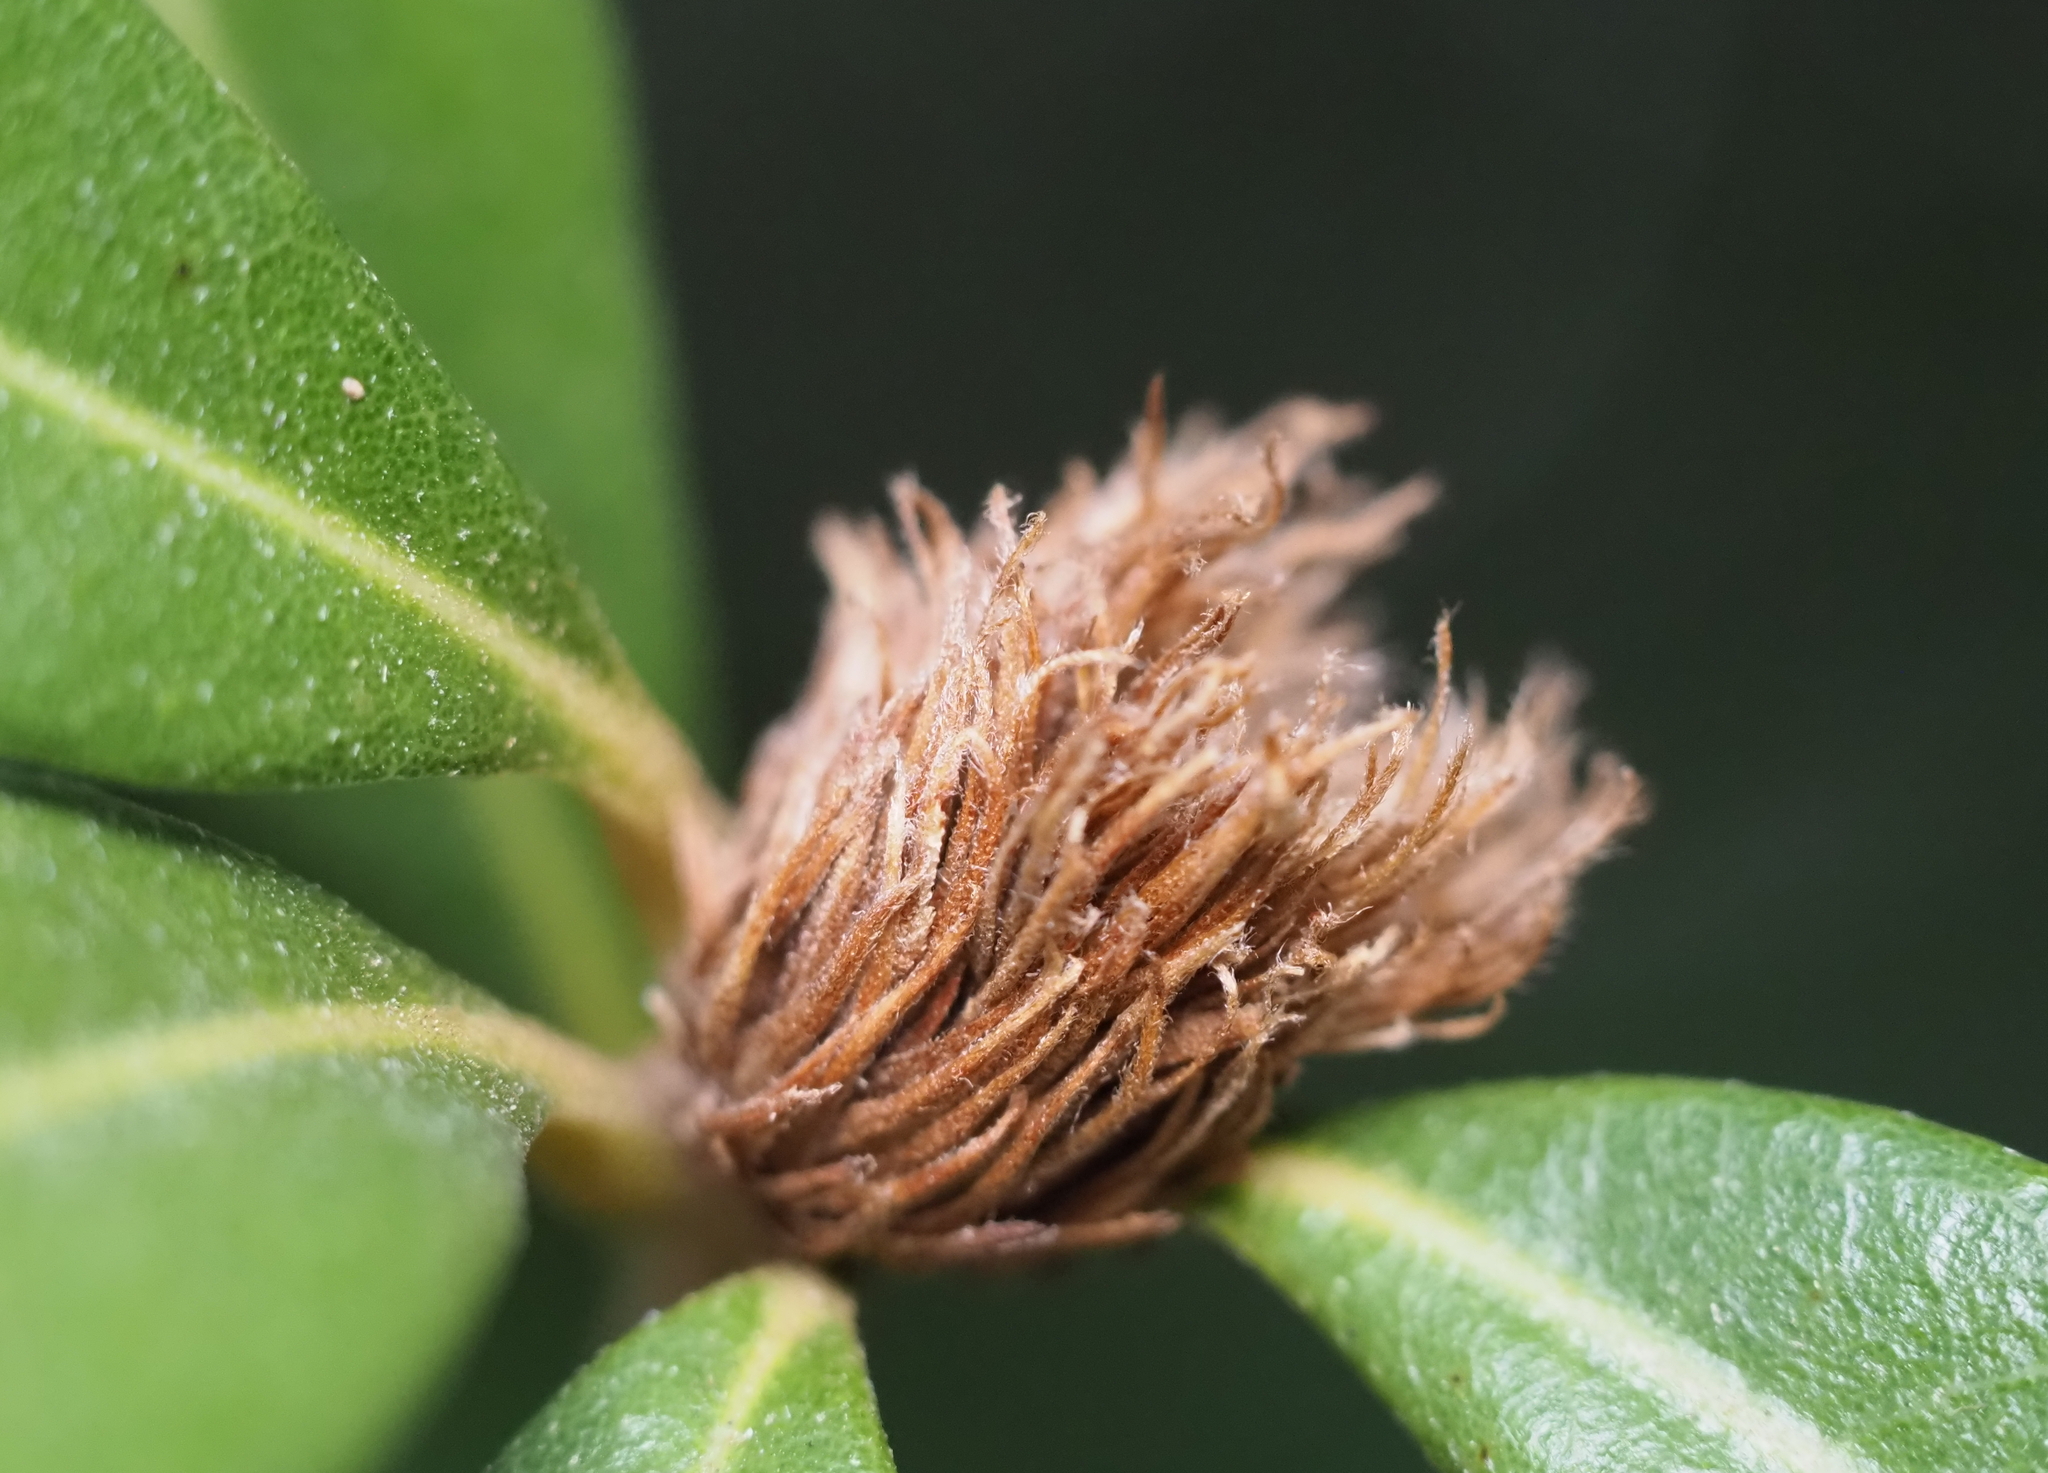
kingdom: Animalia
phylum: Arthropoda
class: Insecta
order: Hymenoptera
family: Cynipidae
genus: Andricus
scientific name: Andricus quercusfoliatus
